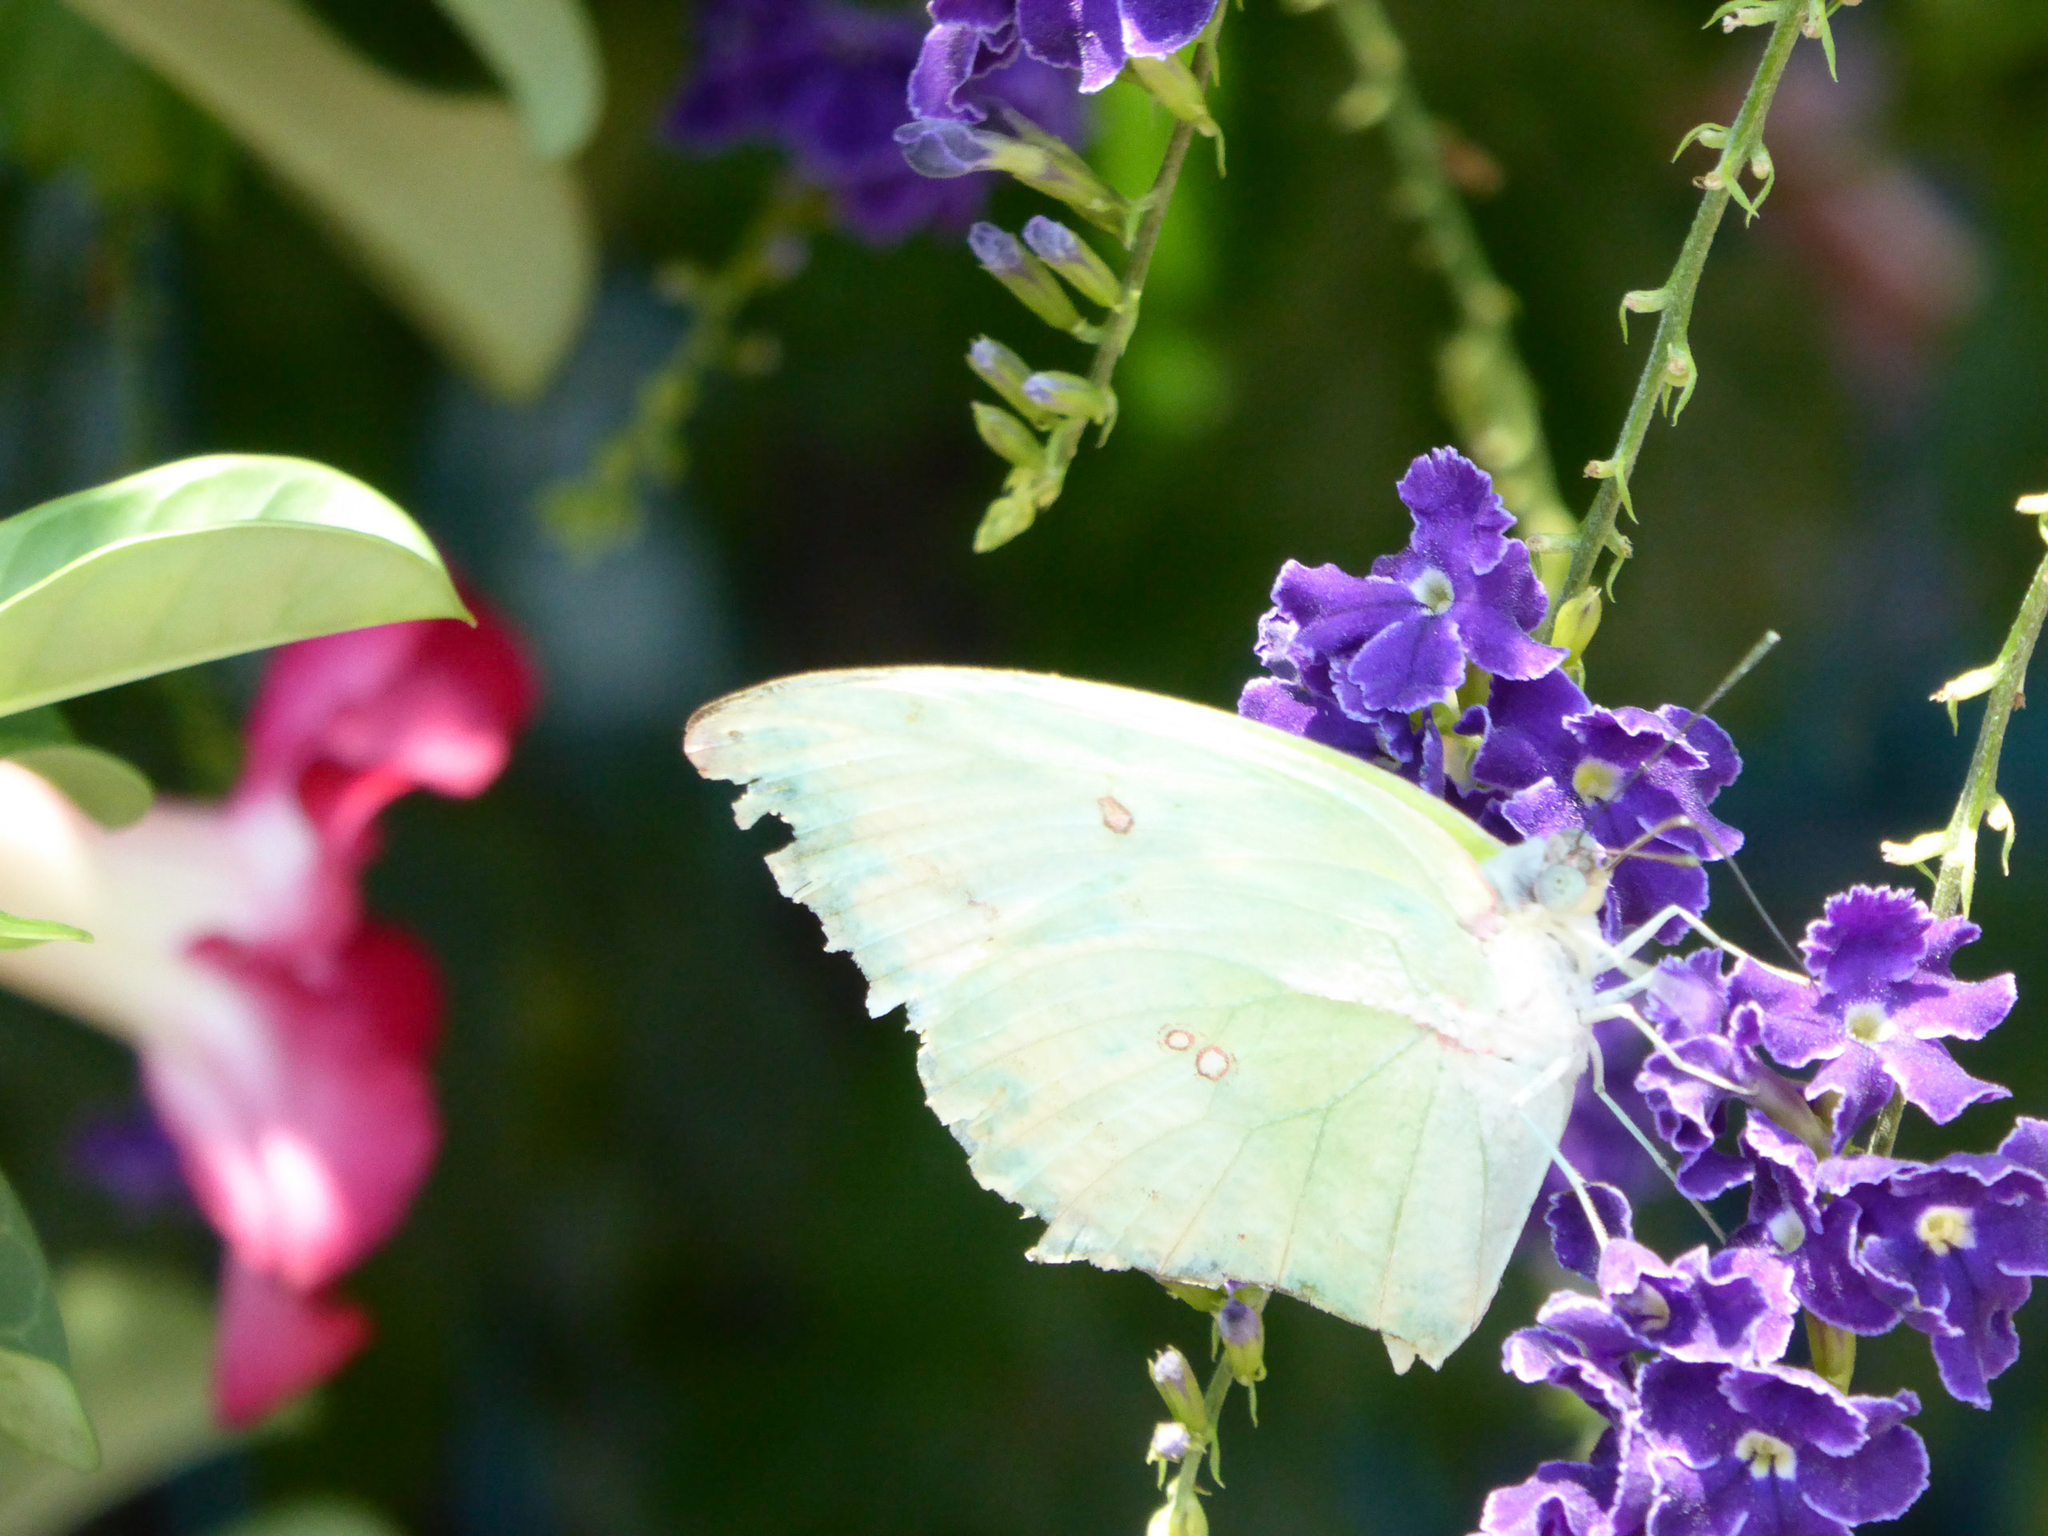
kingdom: Animalia
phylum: Arthropoda
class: Insecta
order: Lepidoptera
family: Pieridae
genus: Catopsilia
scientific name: Catopsilia pomona
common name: Common emigrant
